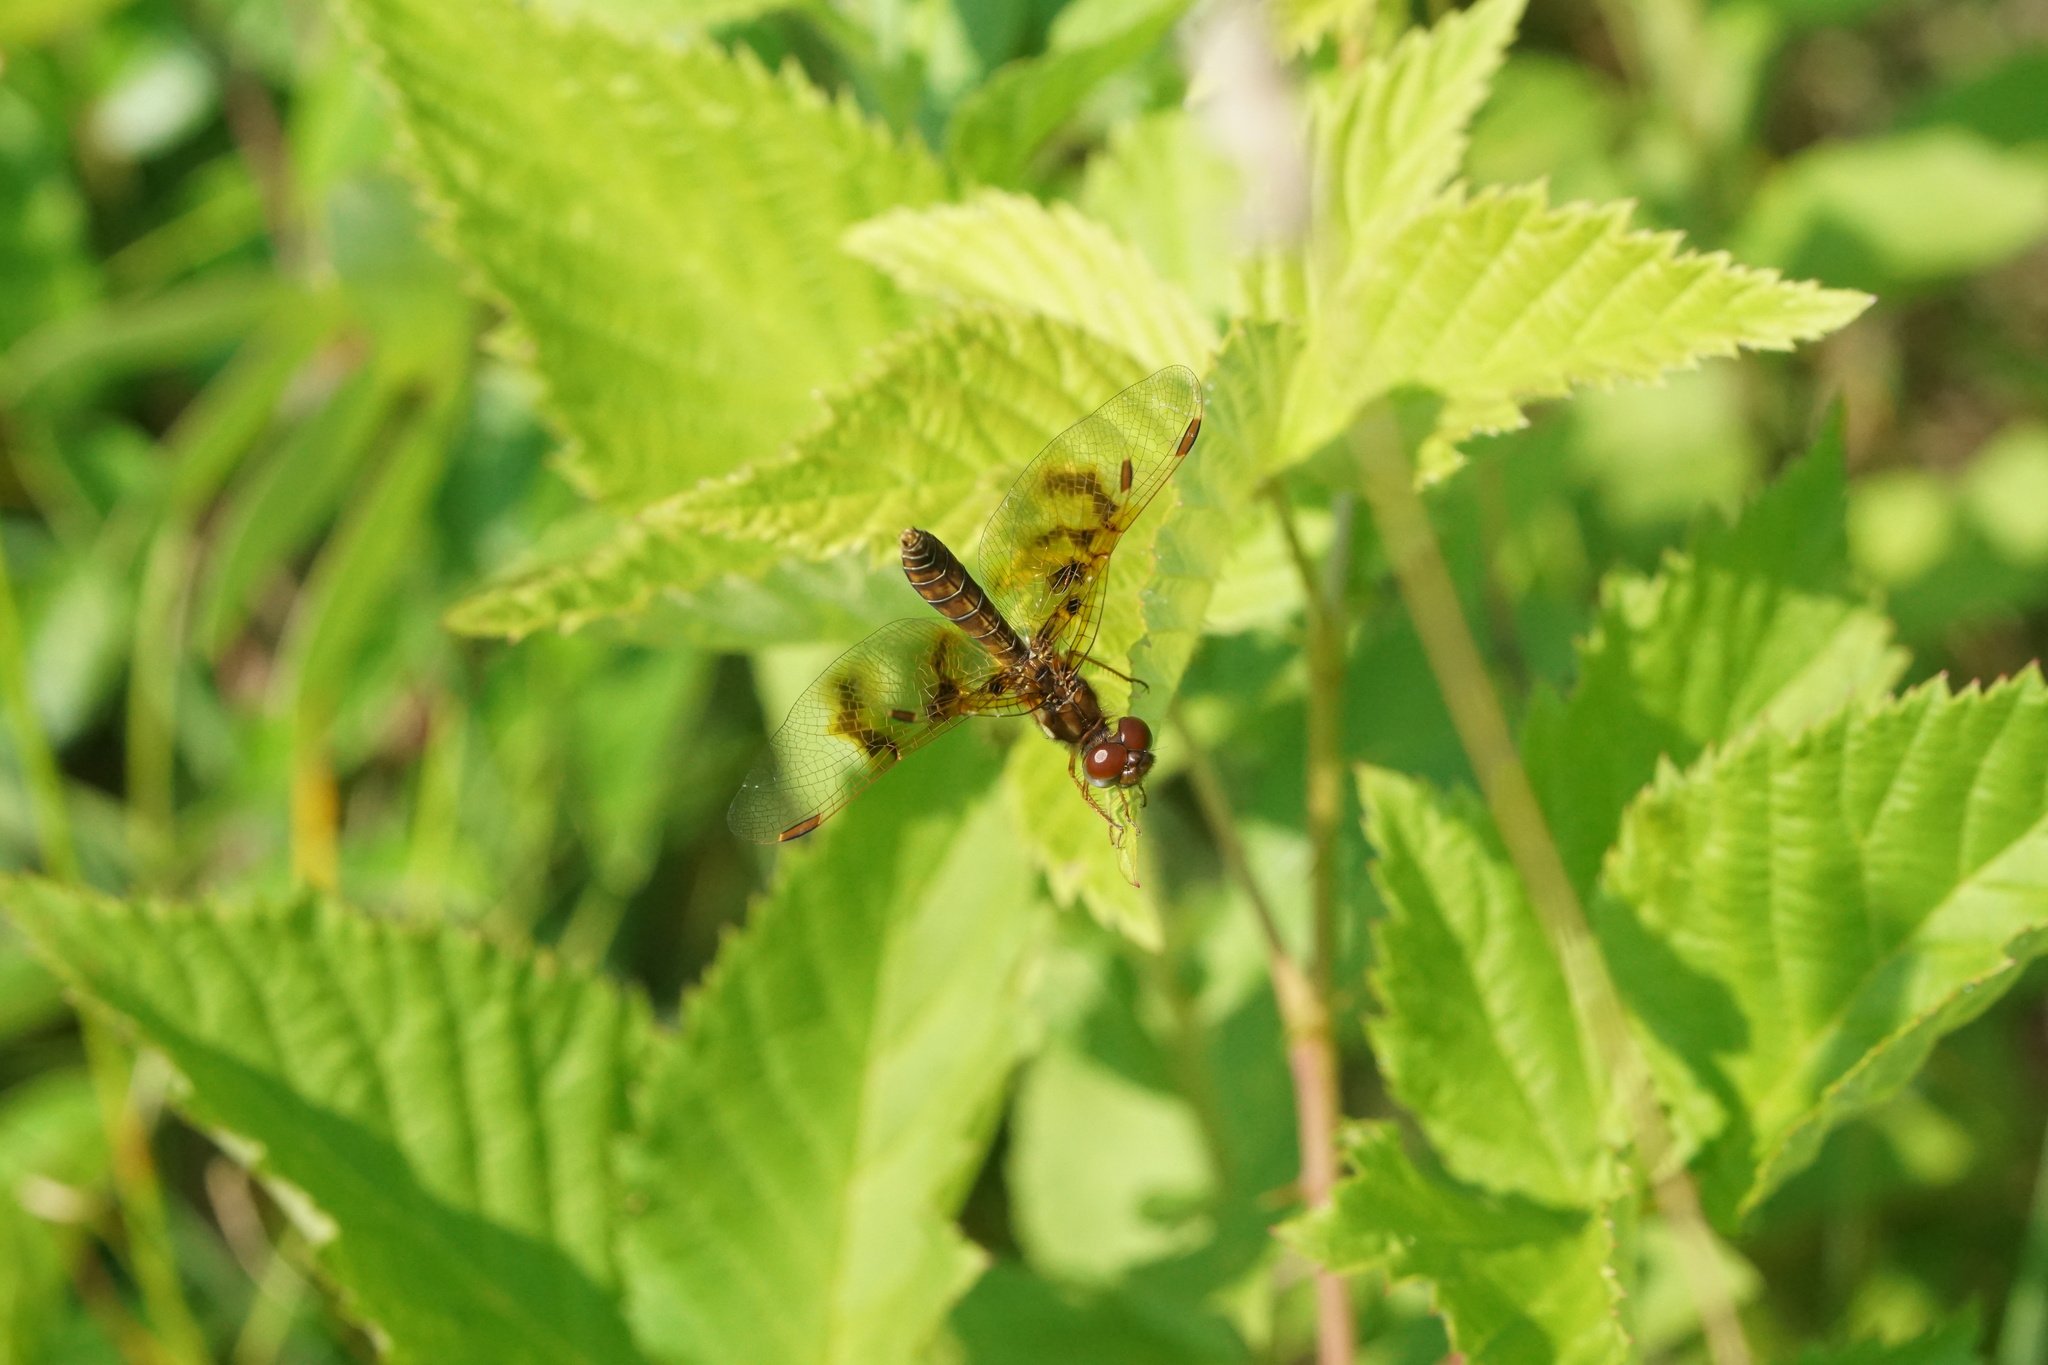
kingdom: Animalia
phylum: Arthropoda
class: Insecta
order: Odonata
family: Libellulidae
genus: Perithemis
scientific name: Perithemis tenera
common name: Eastern amberwing
